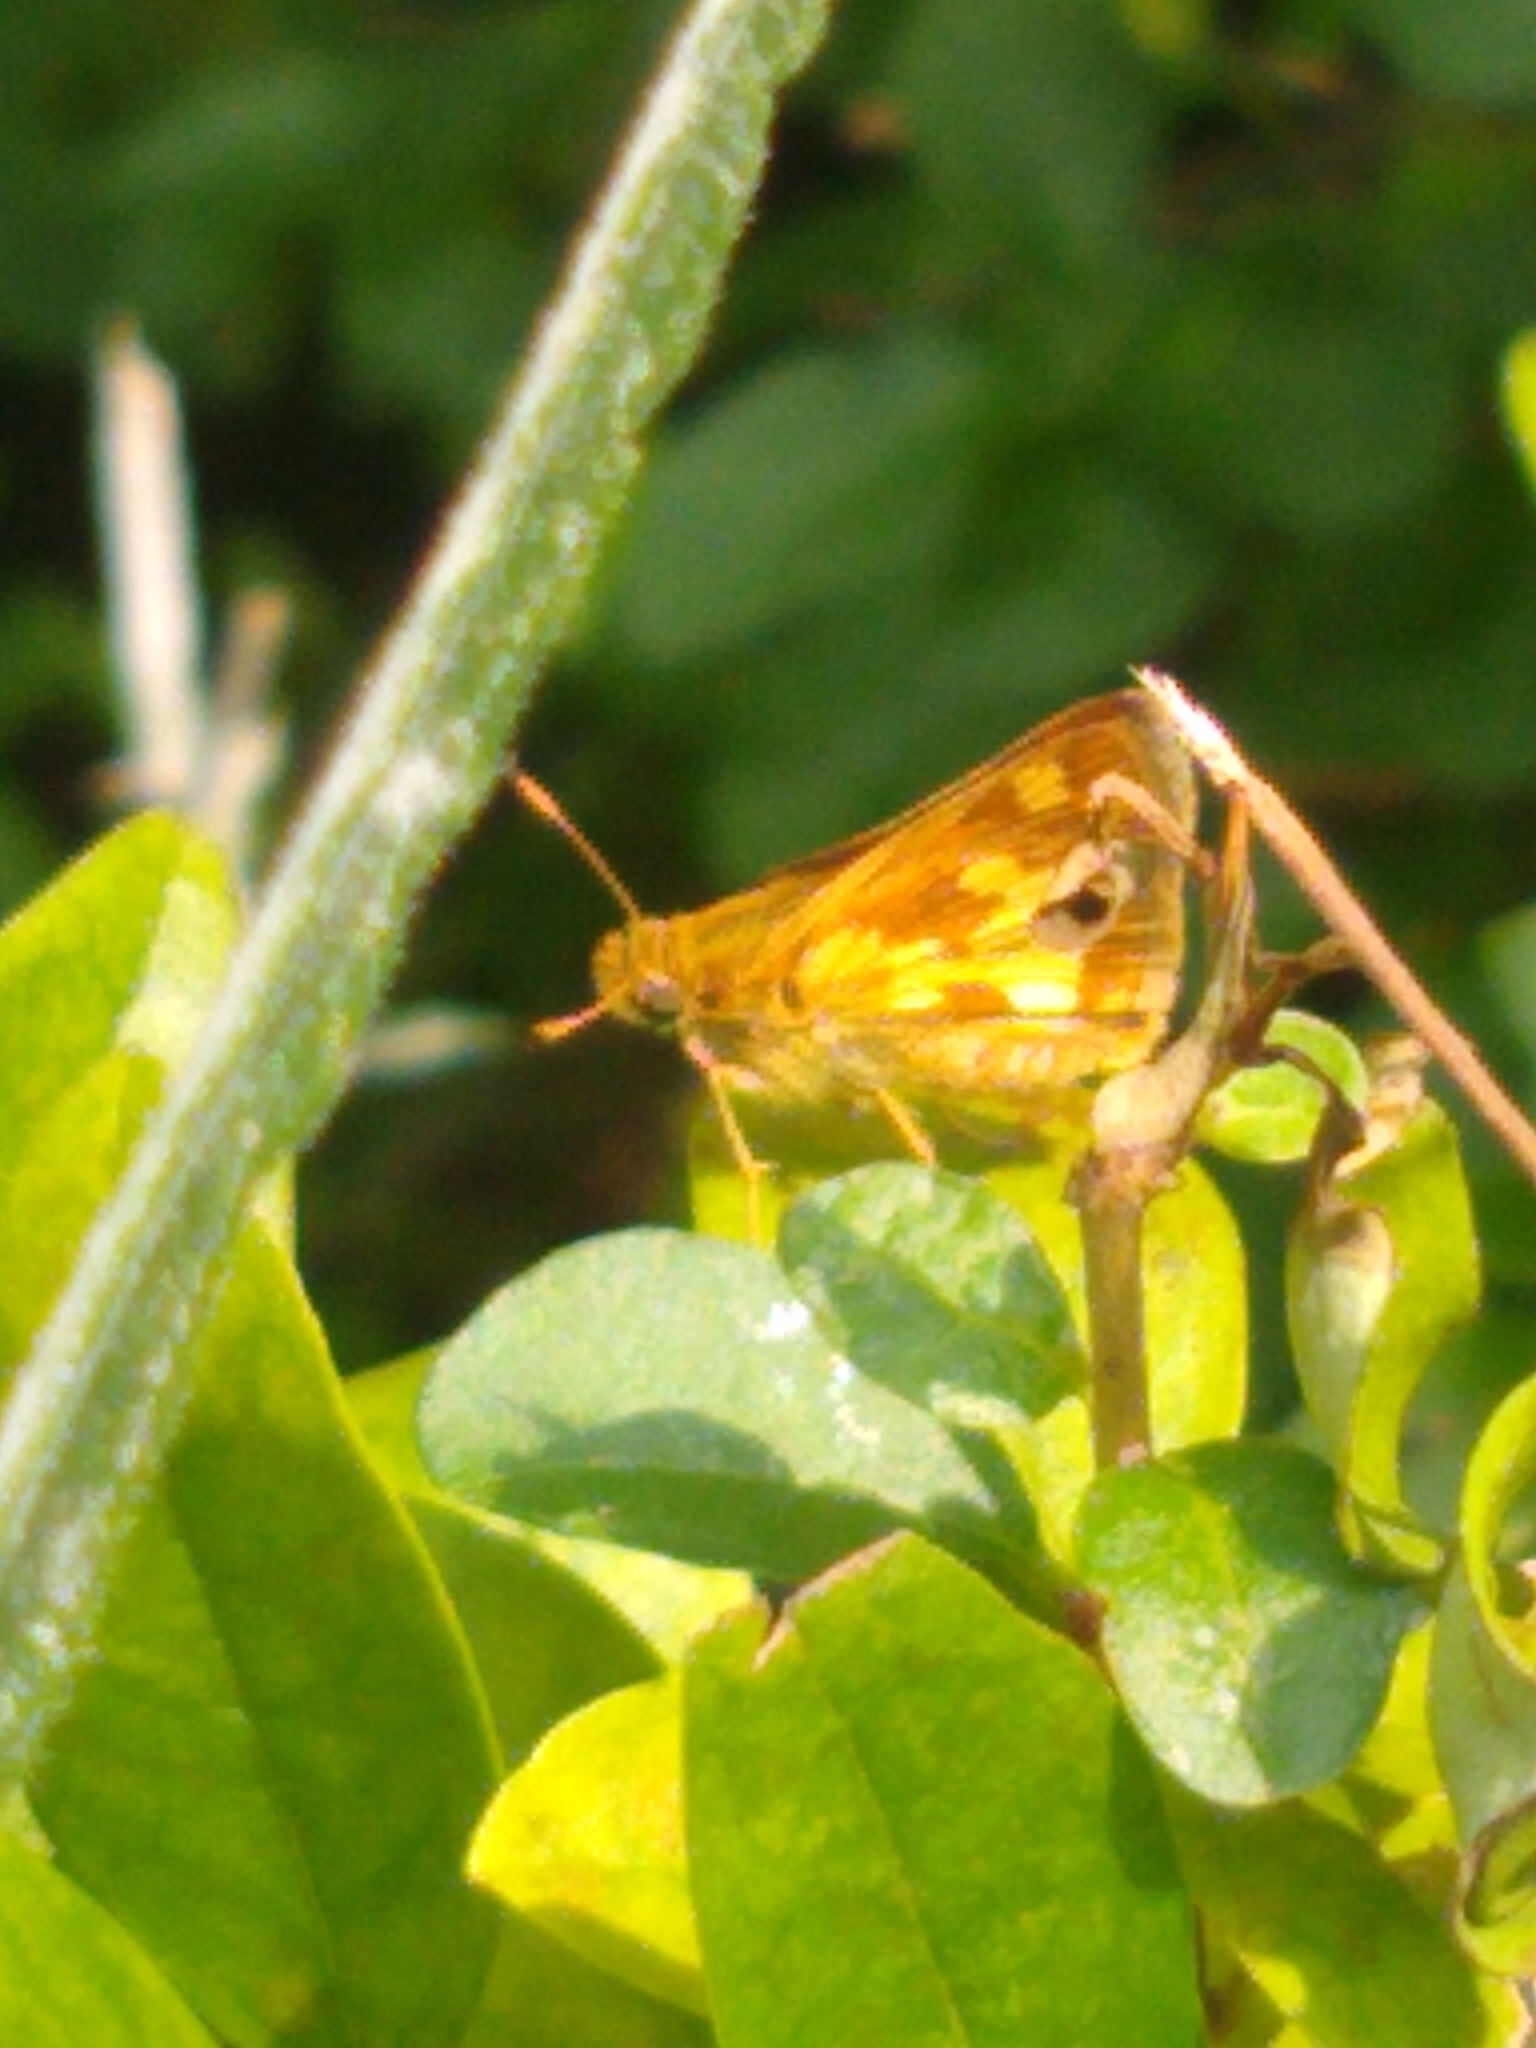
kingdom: Animalia
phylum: Arthropoda
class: Insecta
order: Lepidoptera
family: Hesperiidae
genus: Polites
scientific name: Polites coras
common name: Peck's skipper
